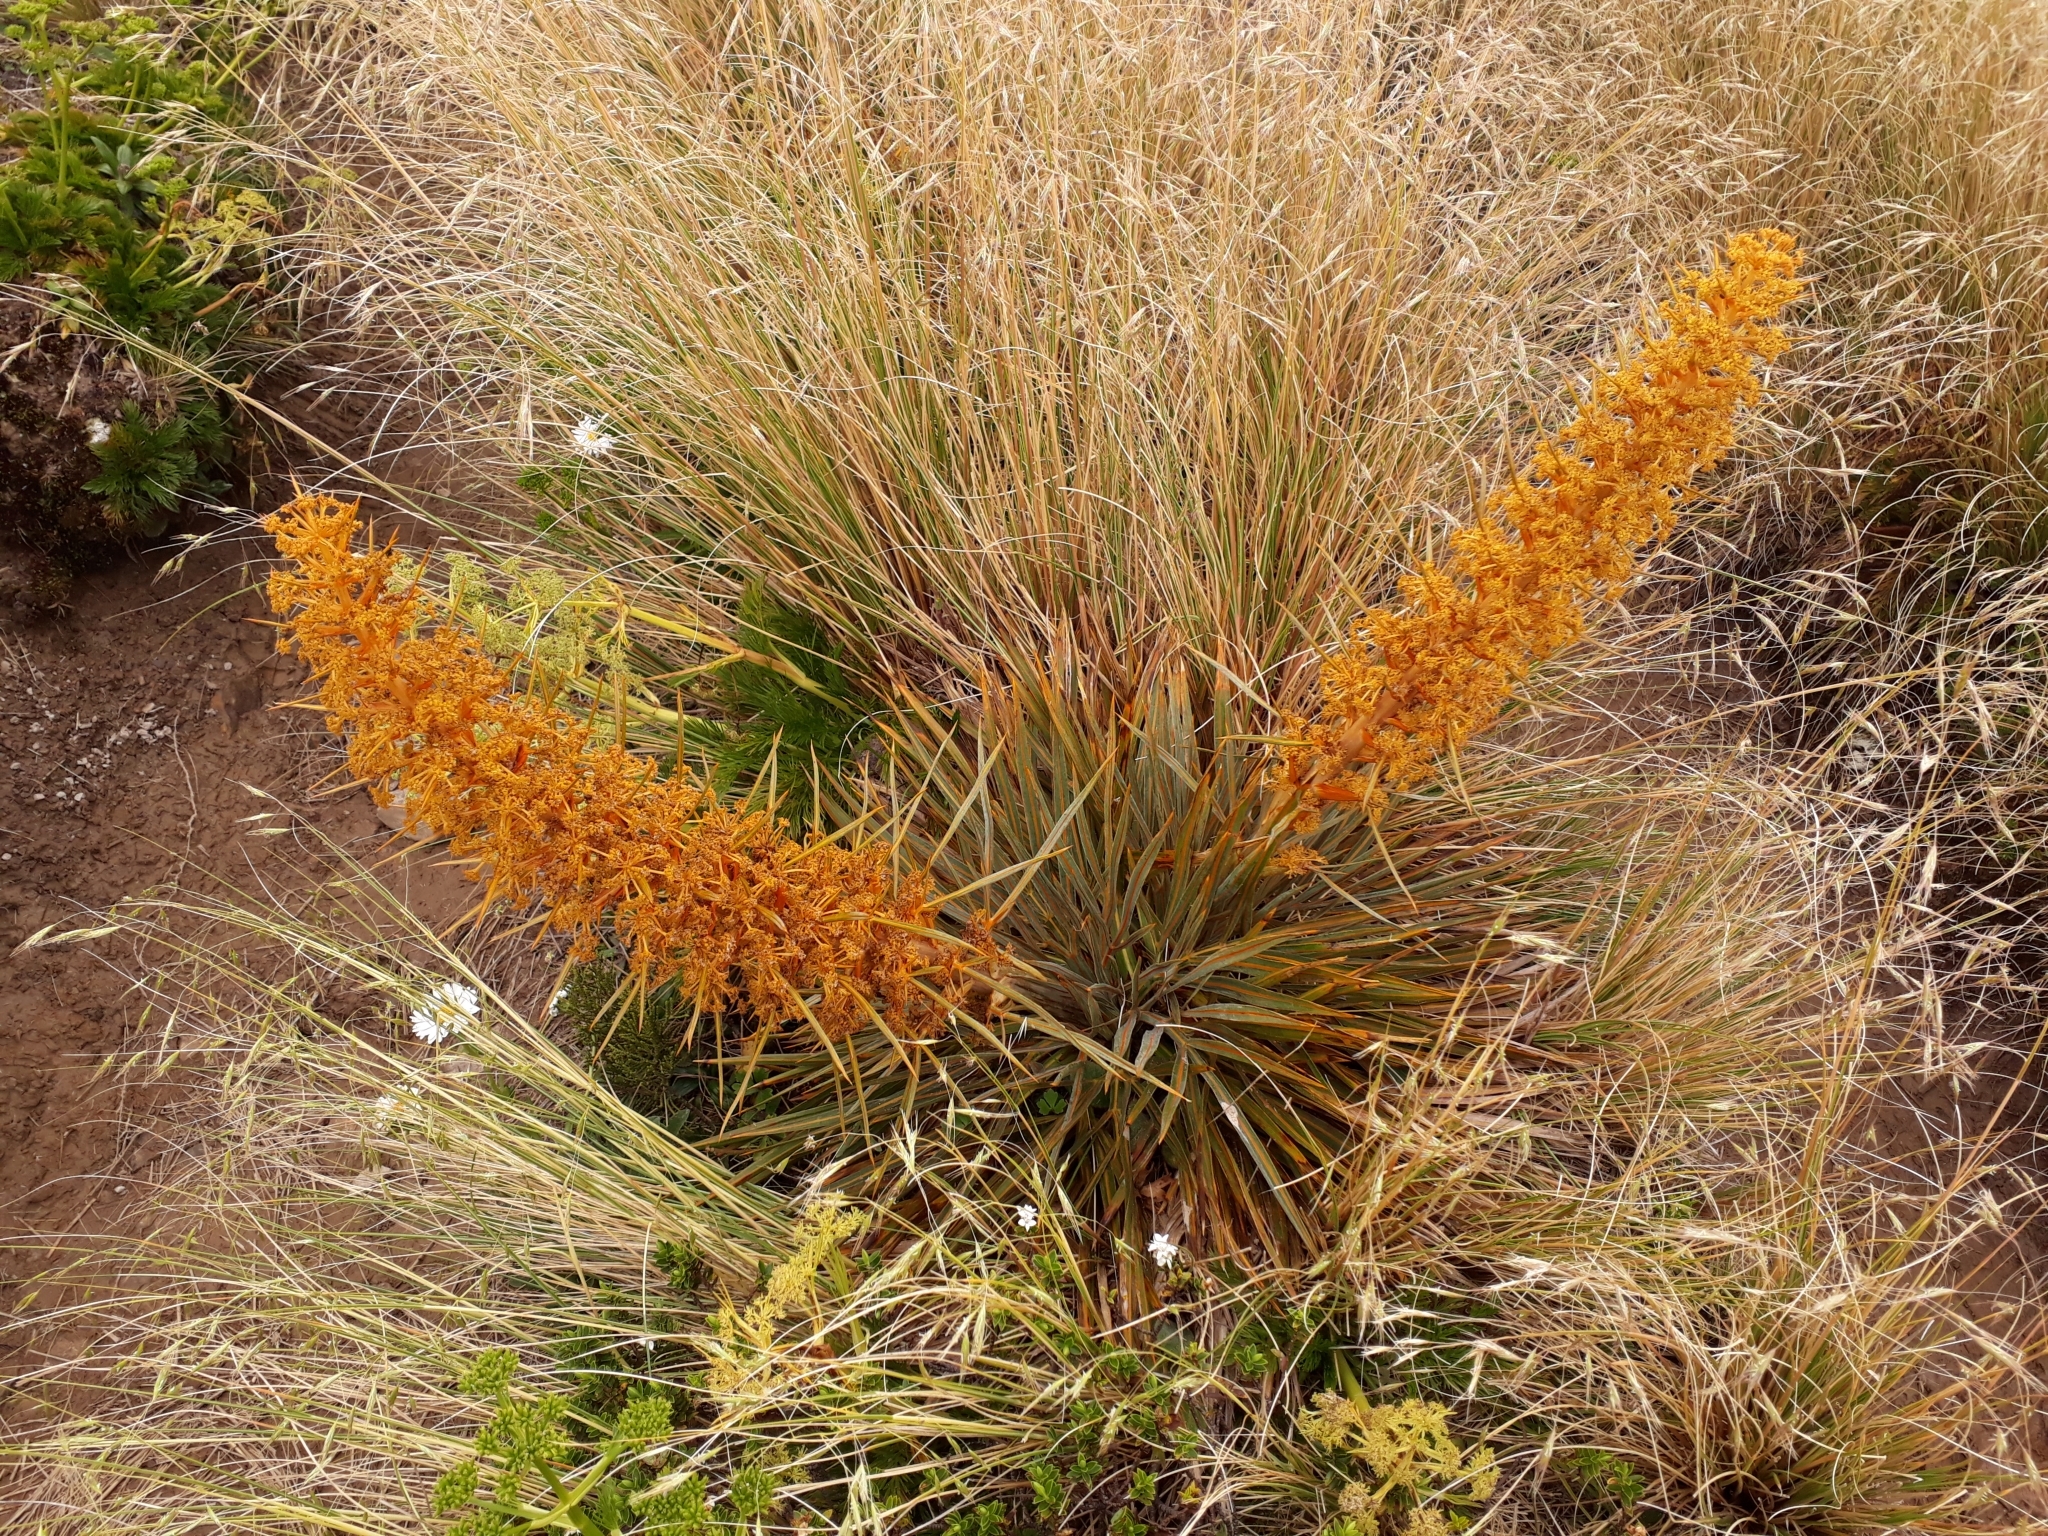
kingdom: Plantae
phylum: Tracheophyta
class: Magnoliopsida
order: Apiales
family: Apiaceae
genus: Aciphylla
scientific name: Aciphylla colensoi
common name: Colenso's spaniard
